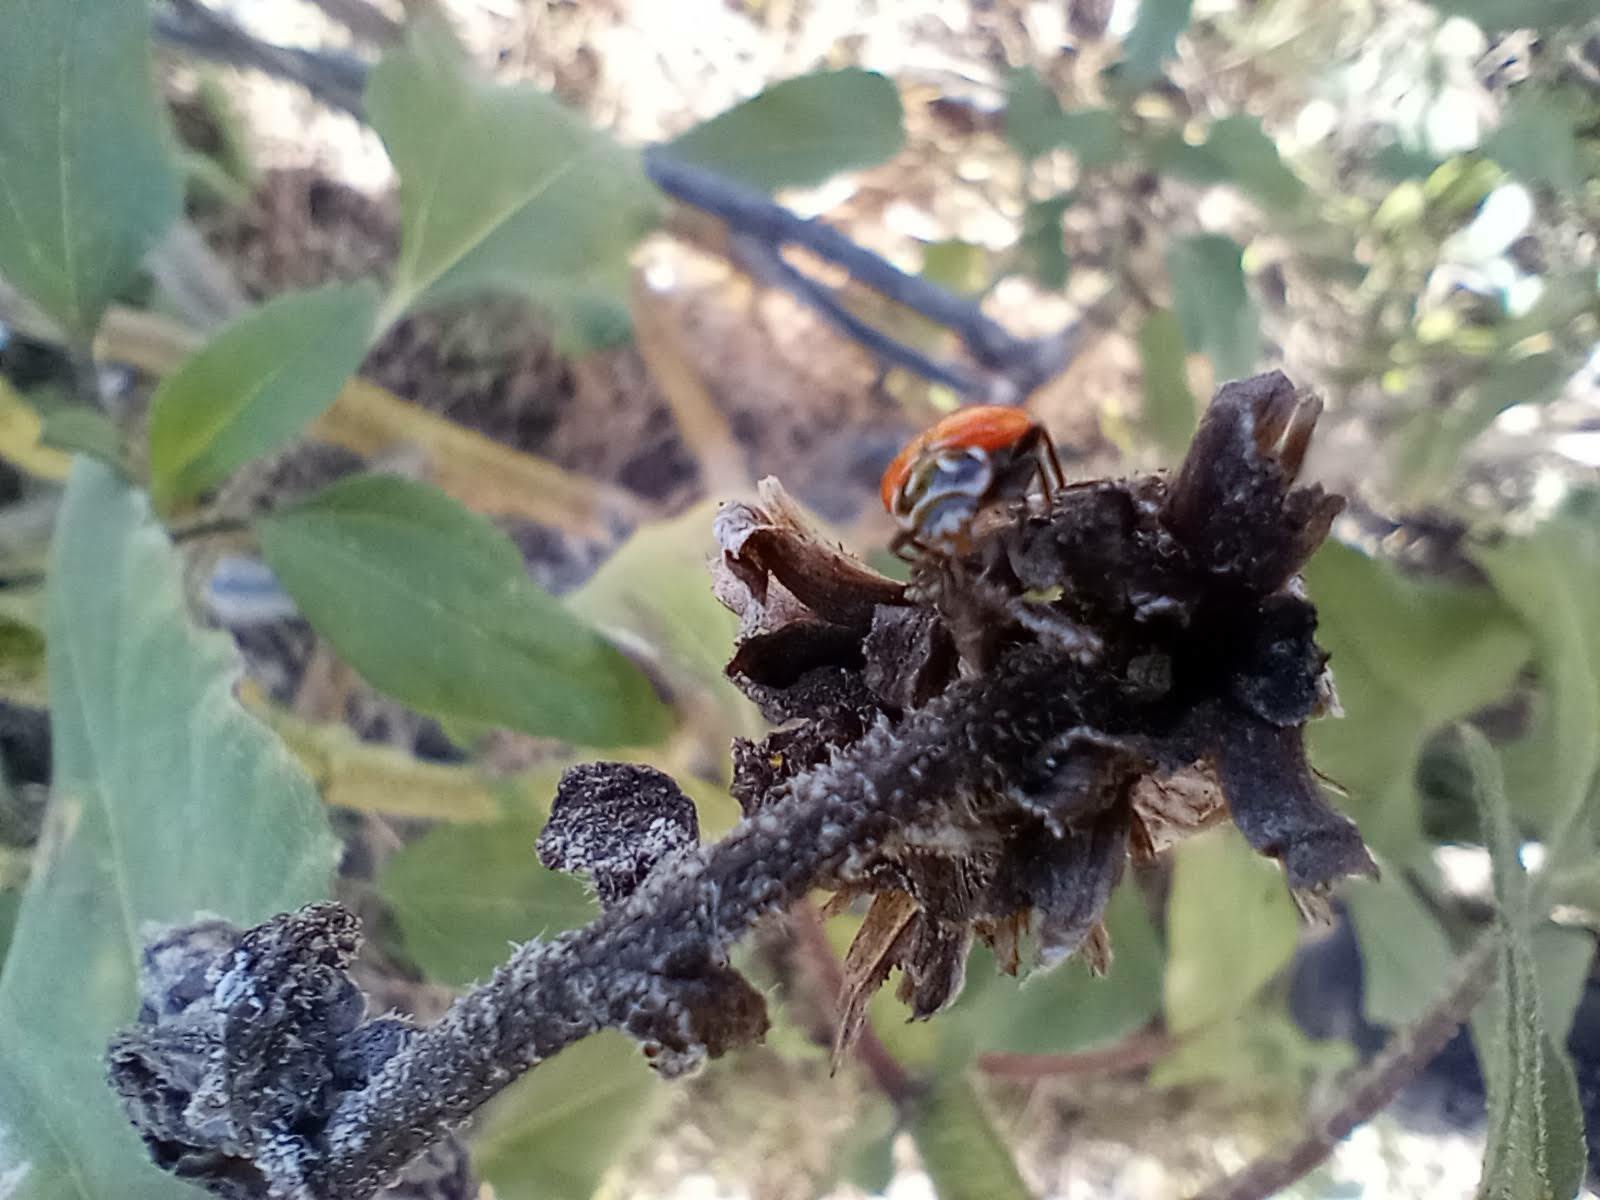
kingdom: Animalia
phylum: Arthropoda
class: Insecta
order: Coleoptera
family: Coccinellidae
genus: Hippodamia
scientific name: Hippodamia convergens
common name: Convergent lady beetle
